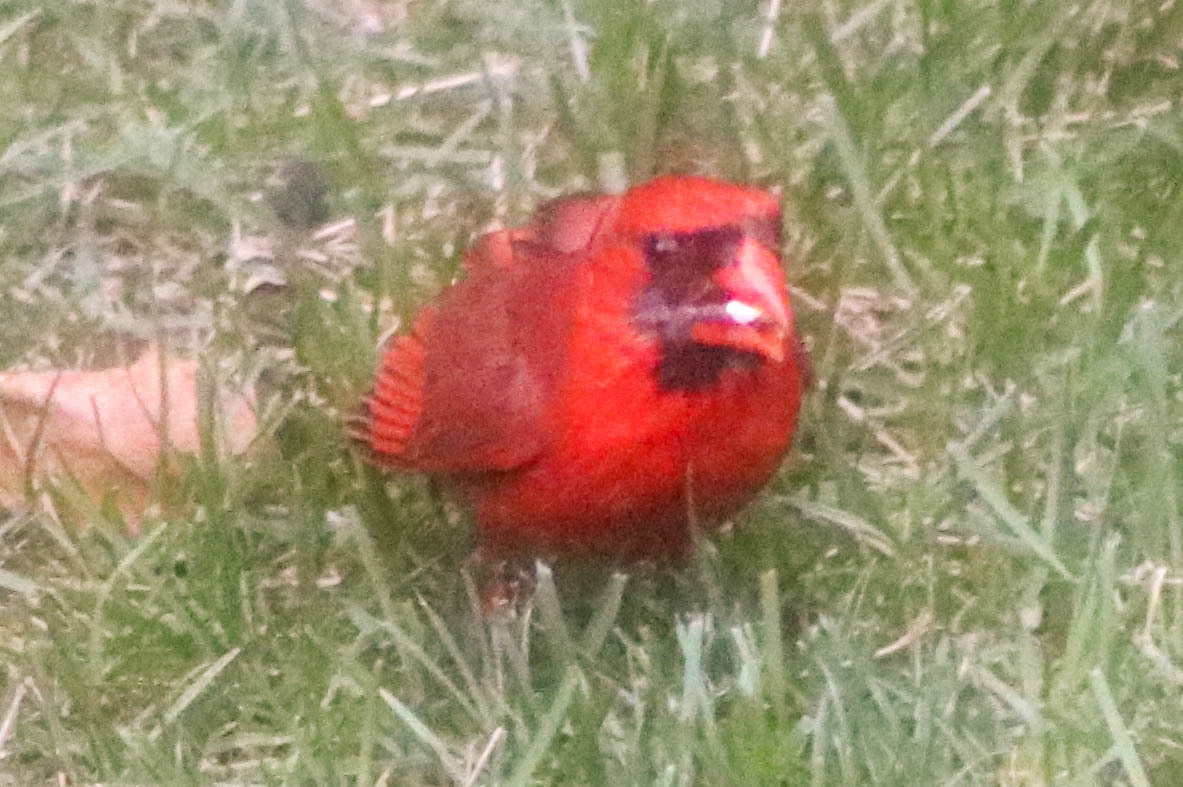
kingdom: Animalia
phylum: Chordata
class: Aves
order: Passeriformes
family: Cardinalidae
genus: Cardinalis
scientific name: Cardinalis cardinalis
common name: Northern cardinal
